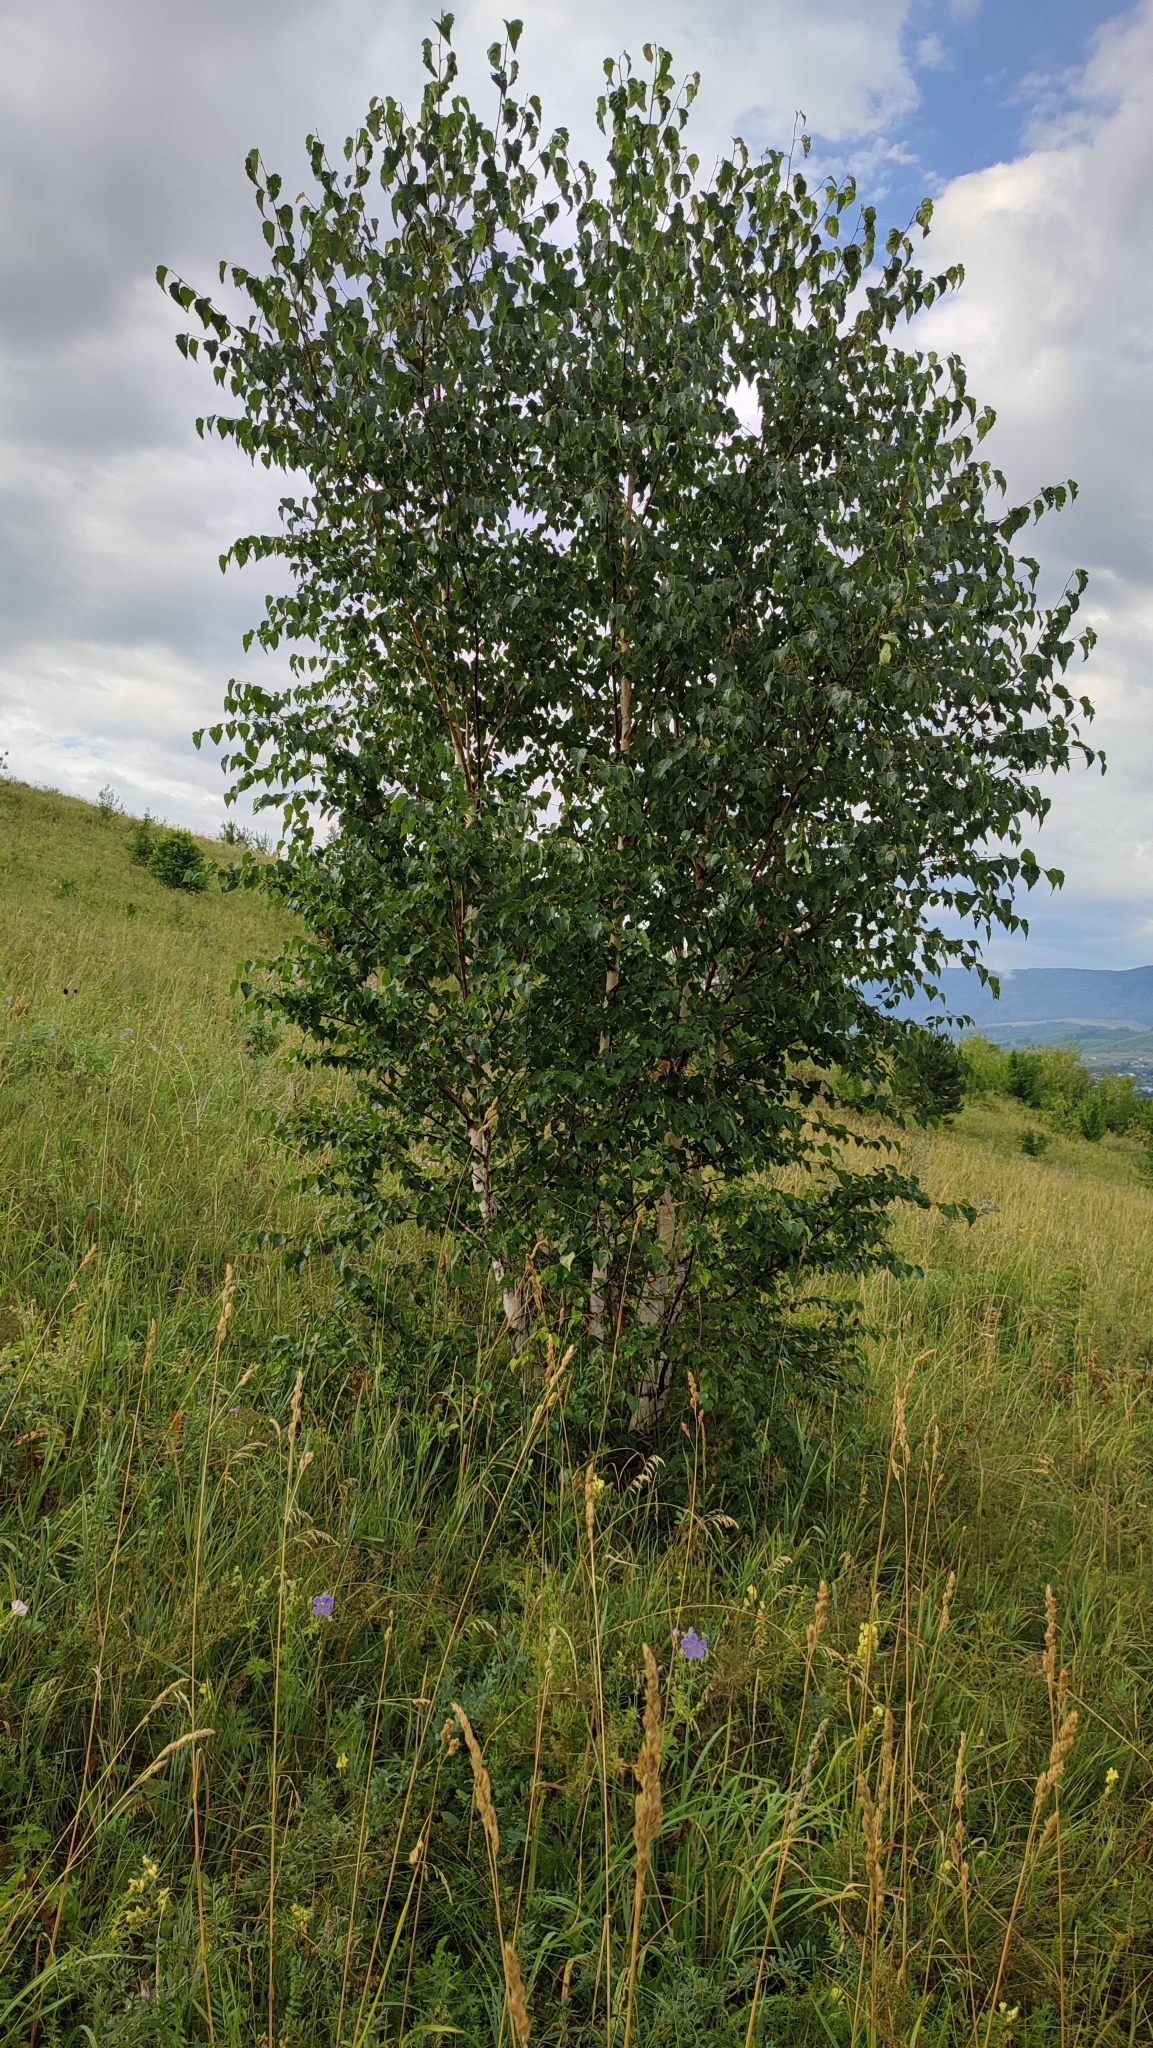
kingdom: Plantae
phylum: Tracheophyta
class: Magnoliopsida
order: Fagales
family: Betulaceae
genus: Betula
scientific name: Betula pendula
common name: Silver birch
